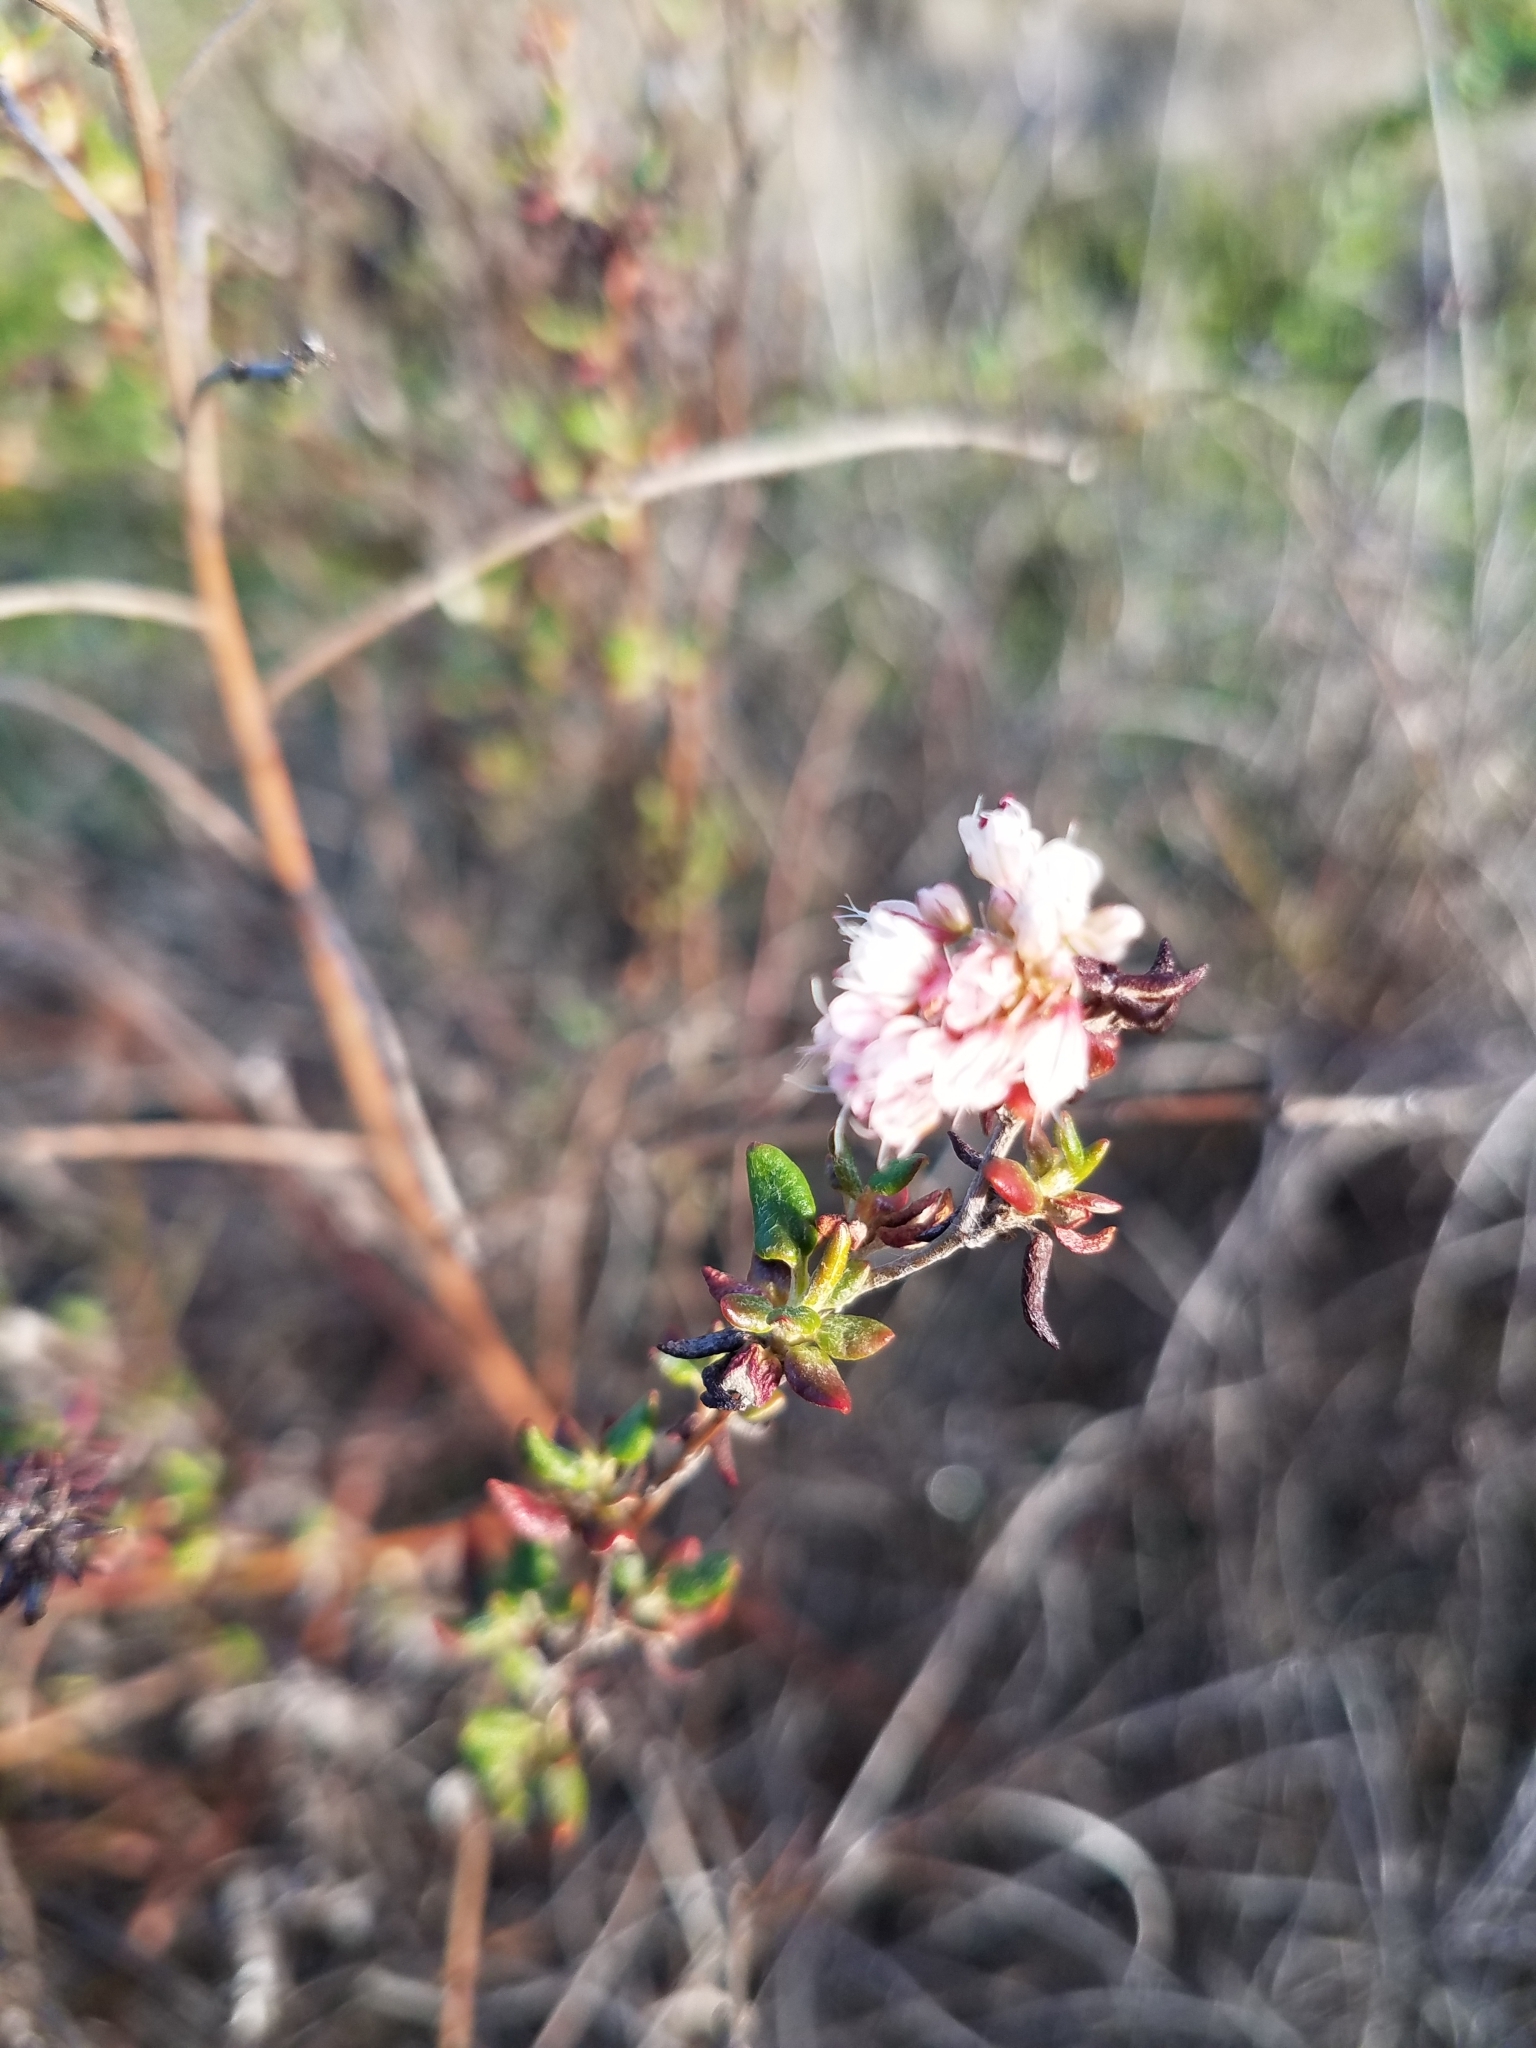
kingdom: Plantae
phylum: Tracheophyta
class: Magnoliopsida
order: Caryophyllales
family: Polygonaceae
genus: Eriogonum
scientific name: Eriogonum parvifolium
